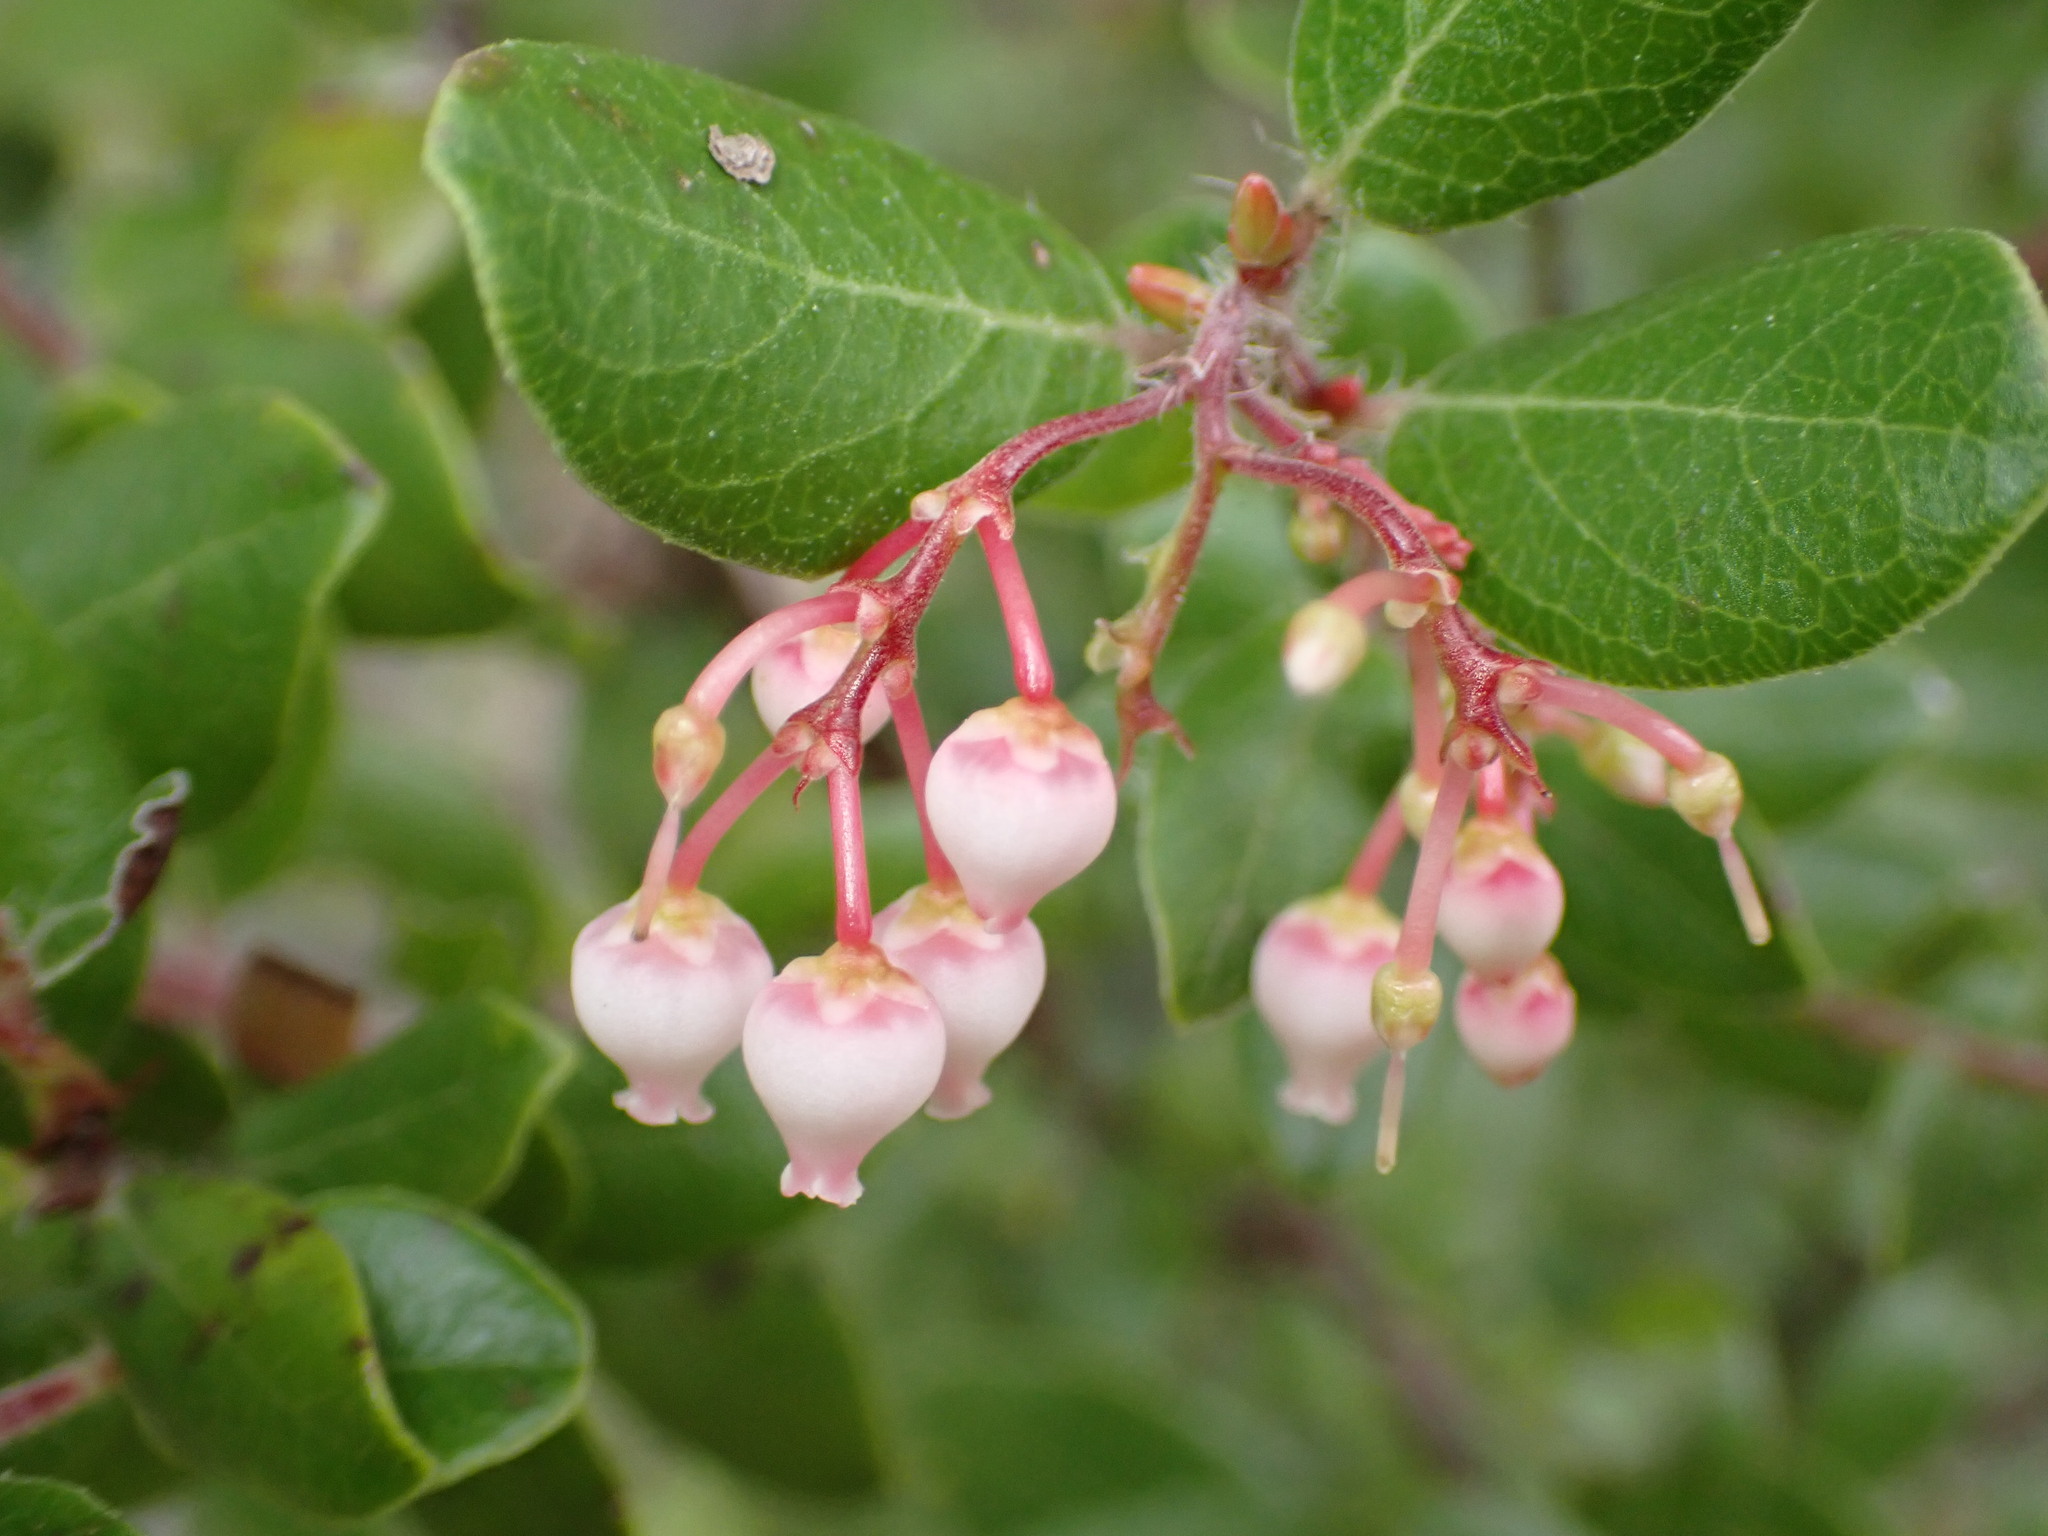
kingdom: Plantae
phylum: Tracheophyta
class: Magnoliopsida
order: Ericales
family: Ericaceae
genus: Arctostaphylos
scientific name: Arctostaphylos nummularia
